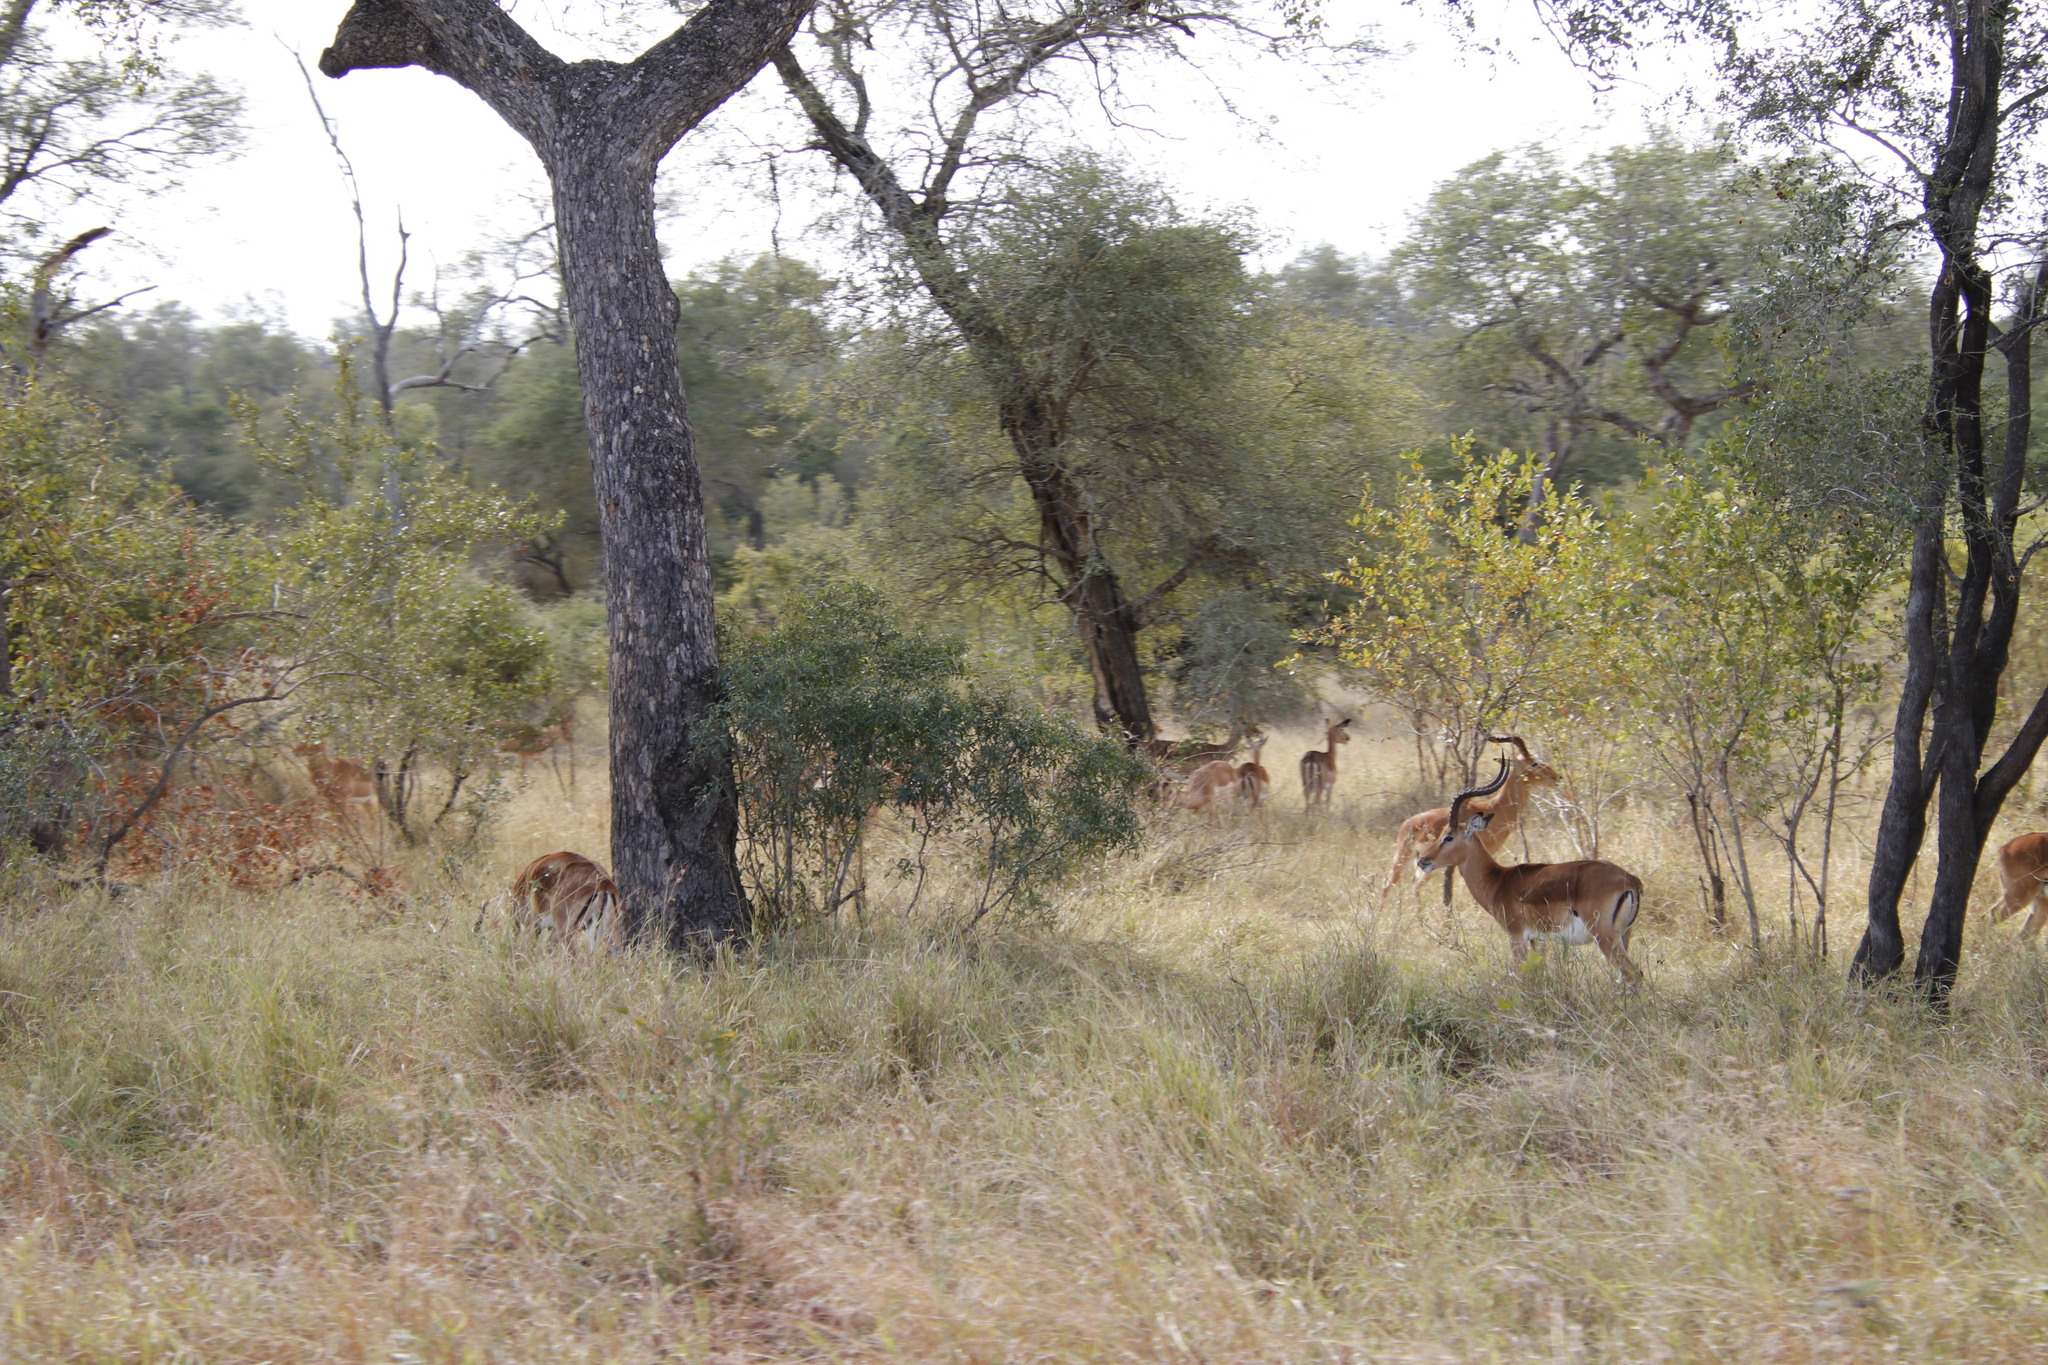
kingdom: Animalia
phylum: Chordata
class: Mammalia
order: Artiodactyla
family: Bovidae
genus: Aepyceros
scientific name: Aepyceros melampus
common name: Impala
